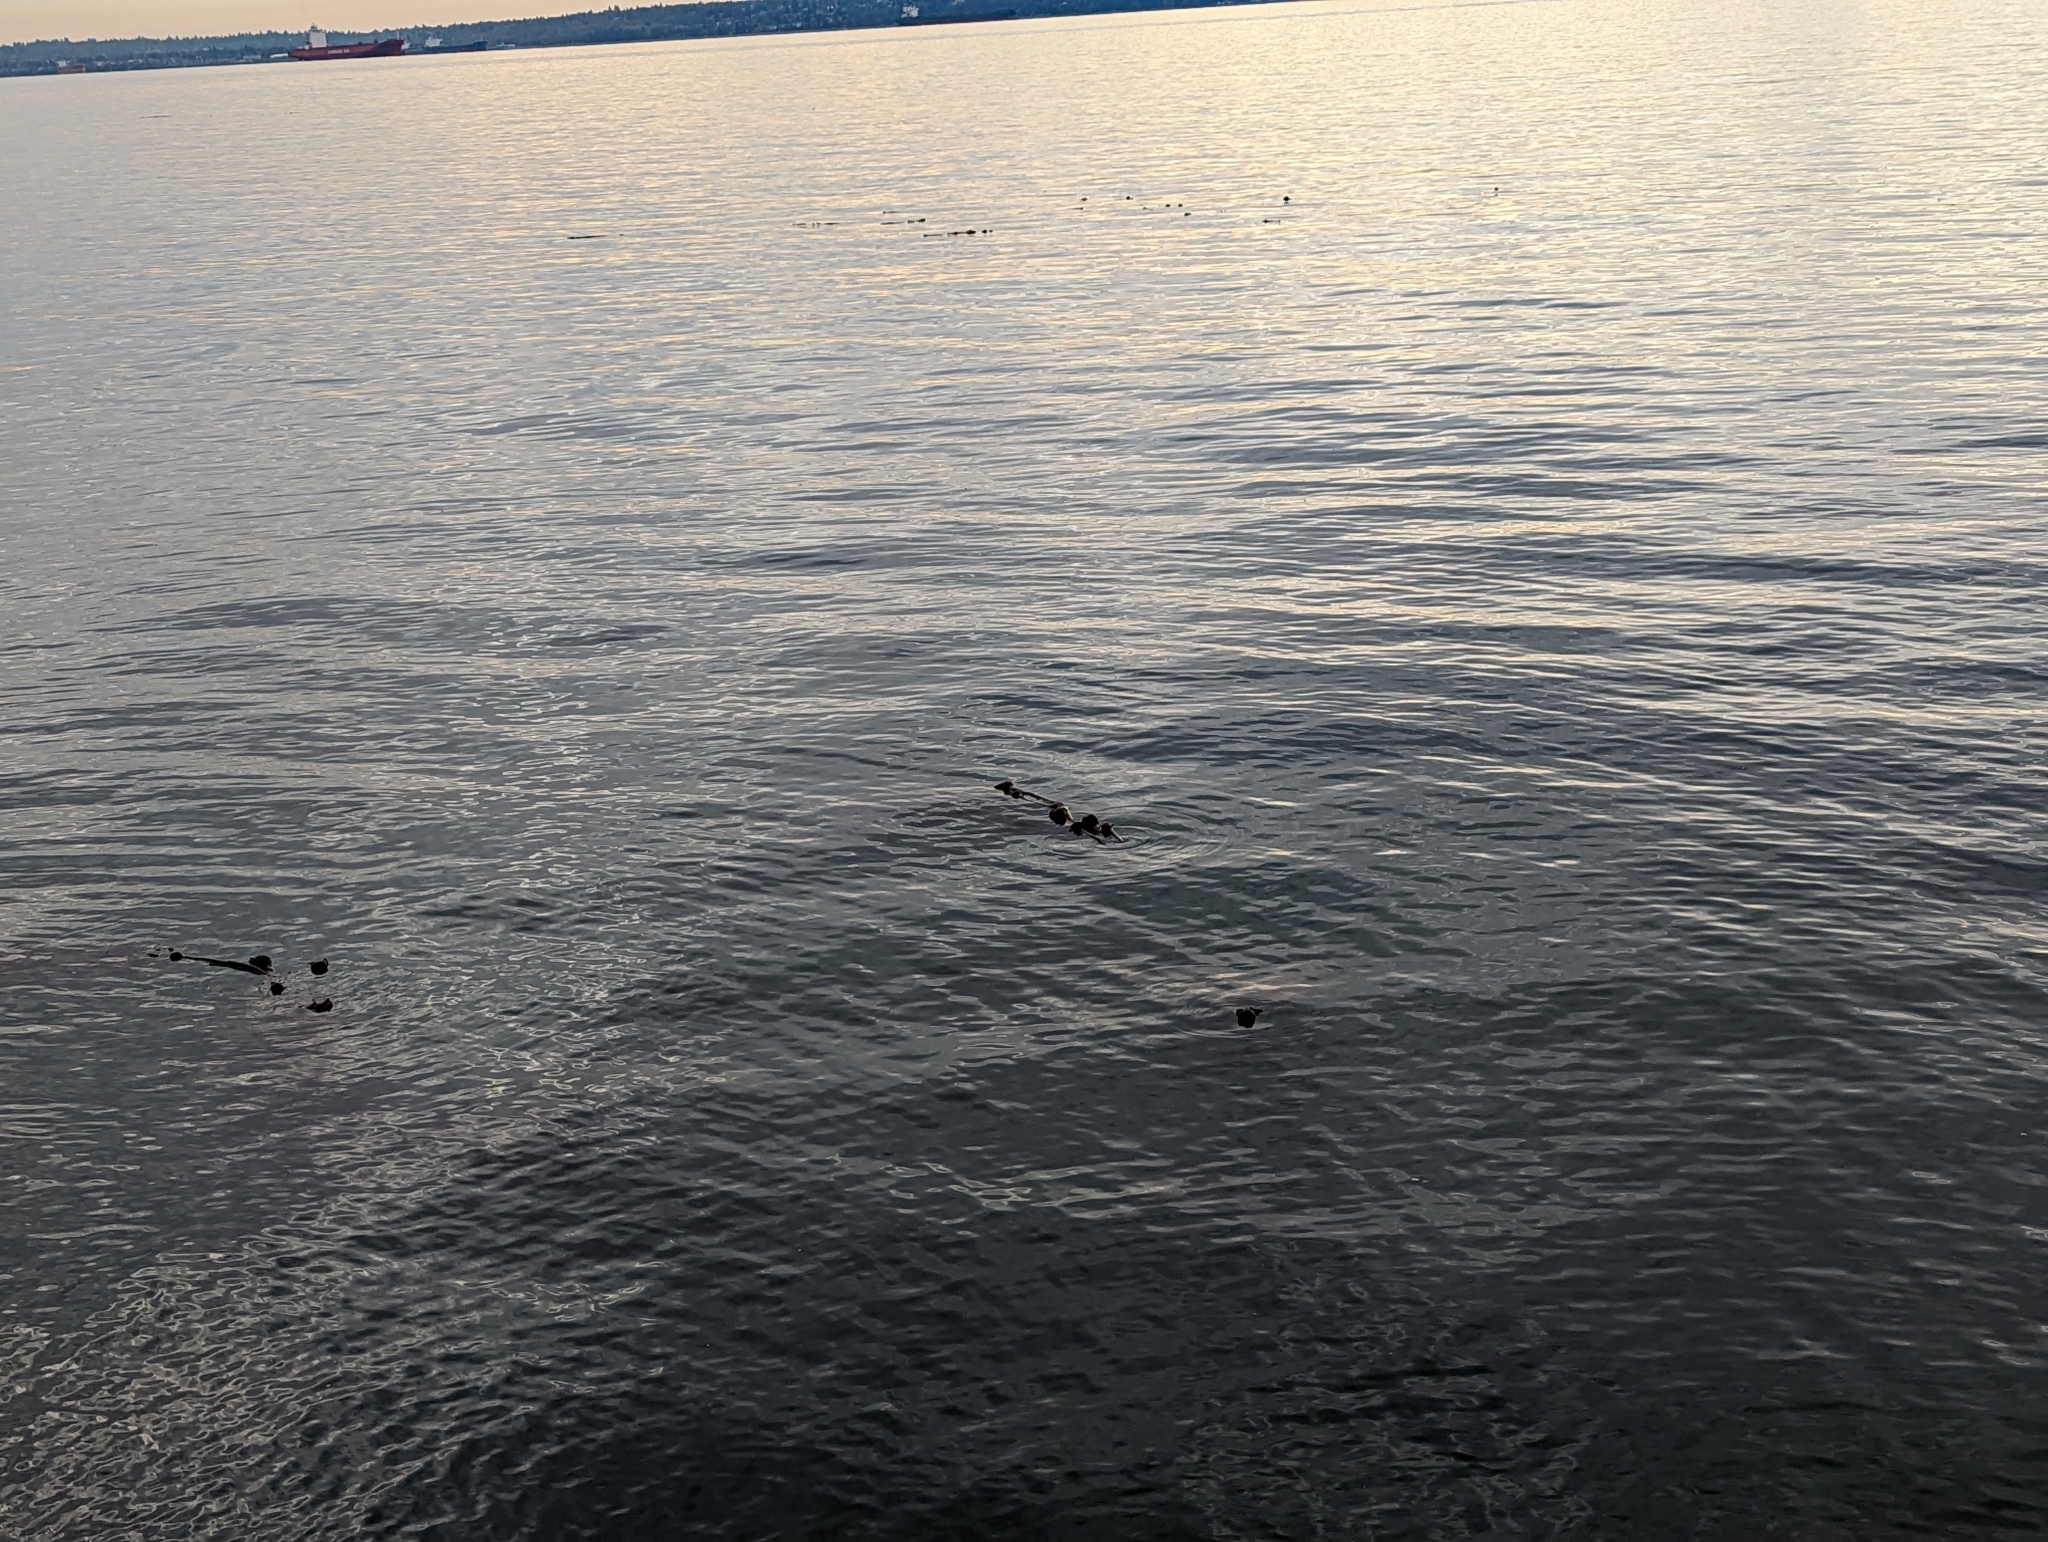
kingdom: Chromista
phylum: Ochrophyta
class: Phaeophyceae
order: Laminariales
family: Laminariaceae
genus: Nereocystis
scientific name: Nereocystis luetkeana
